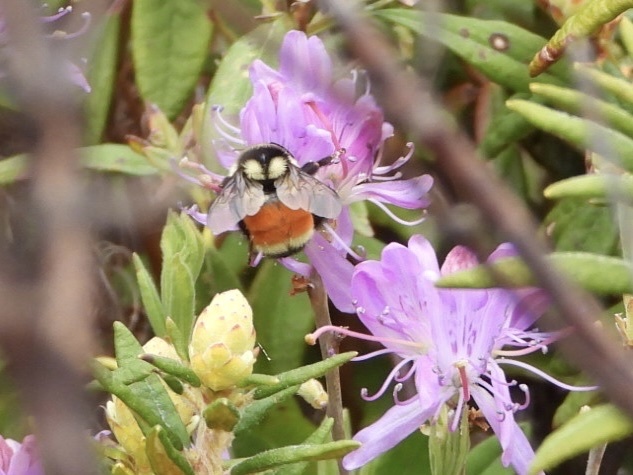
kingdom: Animalia
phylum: Arthropoda
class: Insecta
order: Hymenoptera
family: Apidae
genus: Bombus
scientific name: Bombus ternarius
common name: Tri-colored bumble bee
